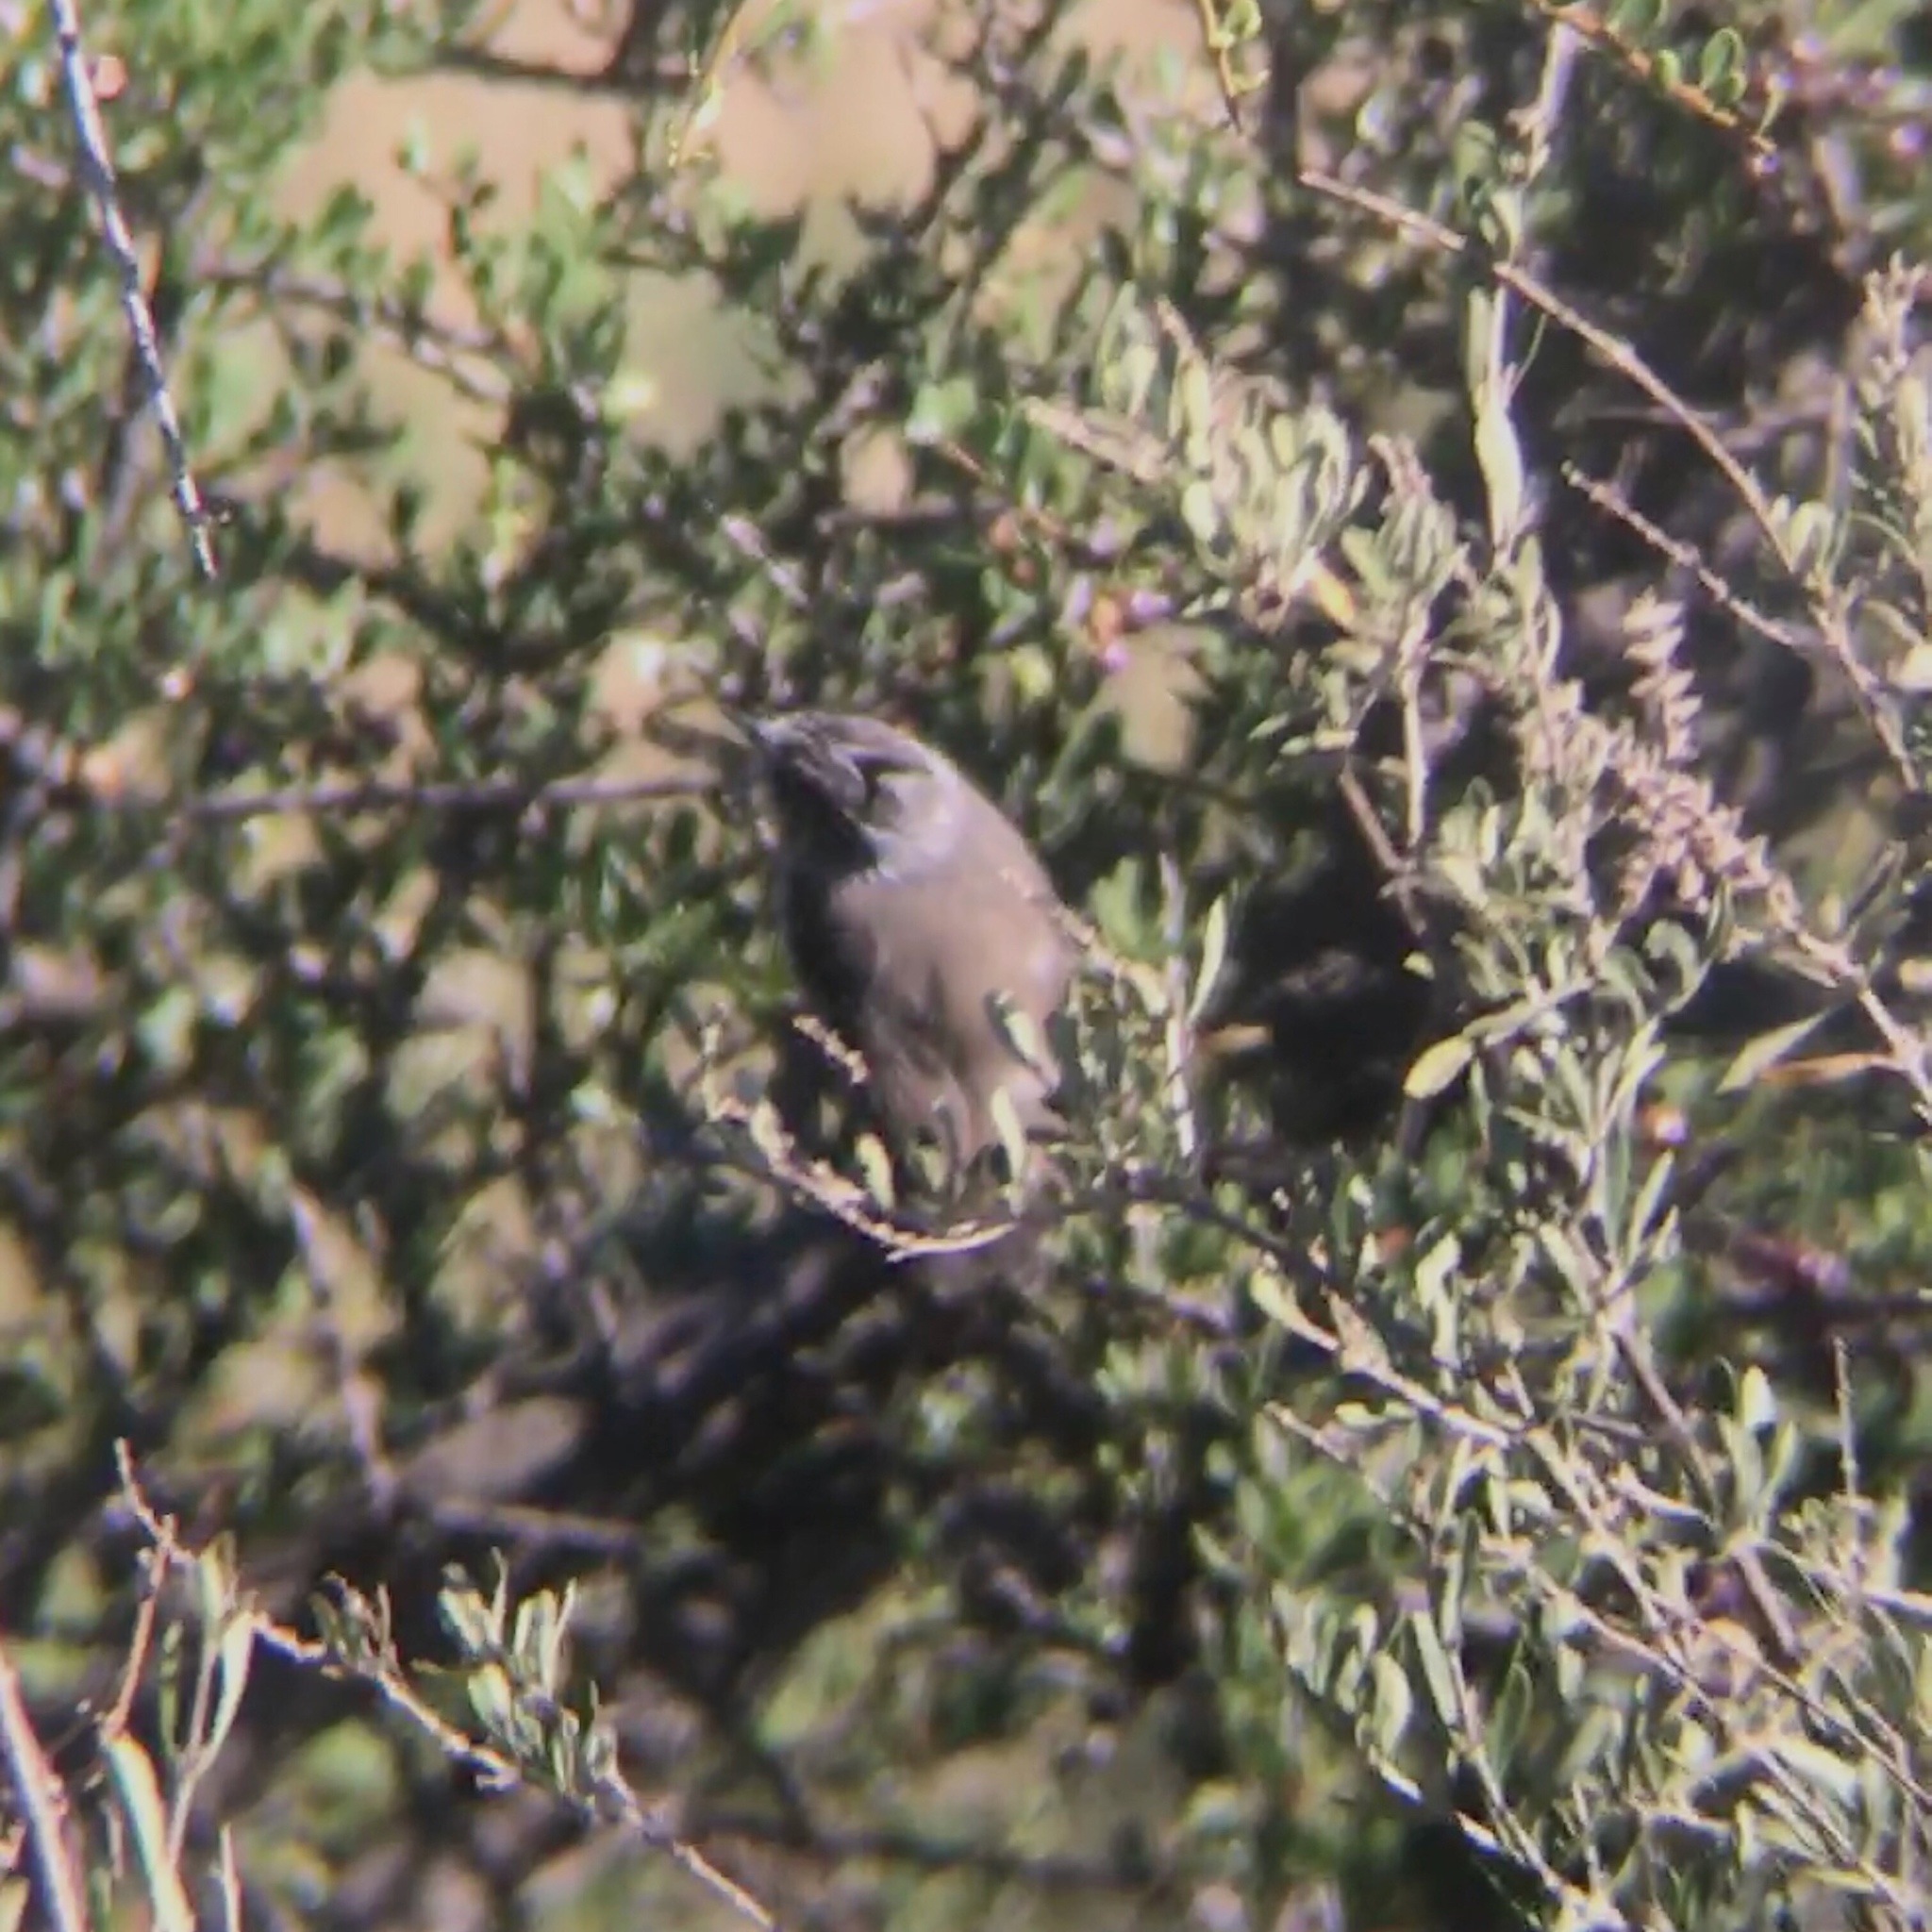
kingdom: Animalia
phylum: Chordata
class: Aves
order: Passeriformes
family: Tyrannidae
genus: Anairetes
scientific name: Anairetes parulus
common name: Tufted tit-tyrant
